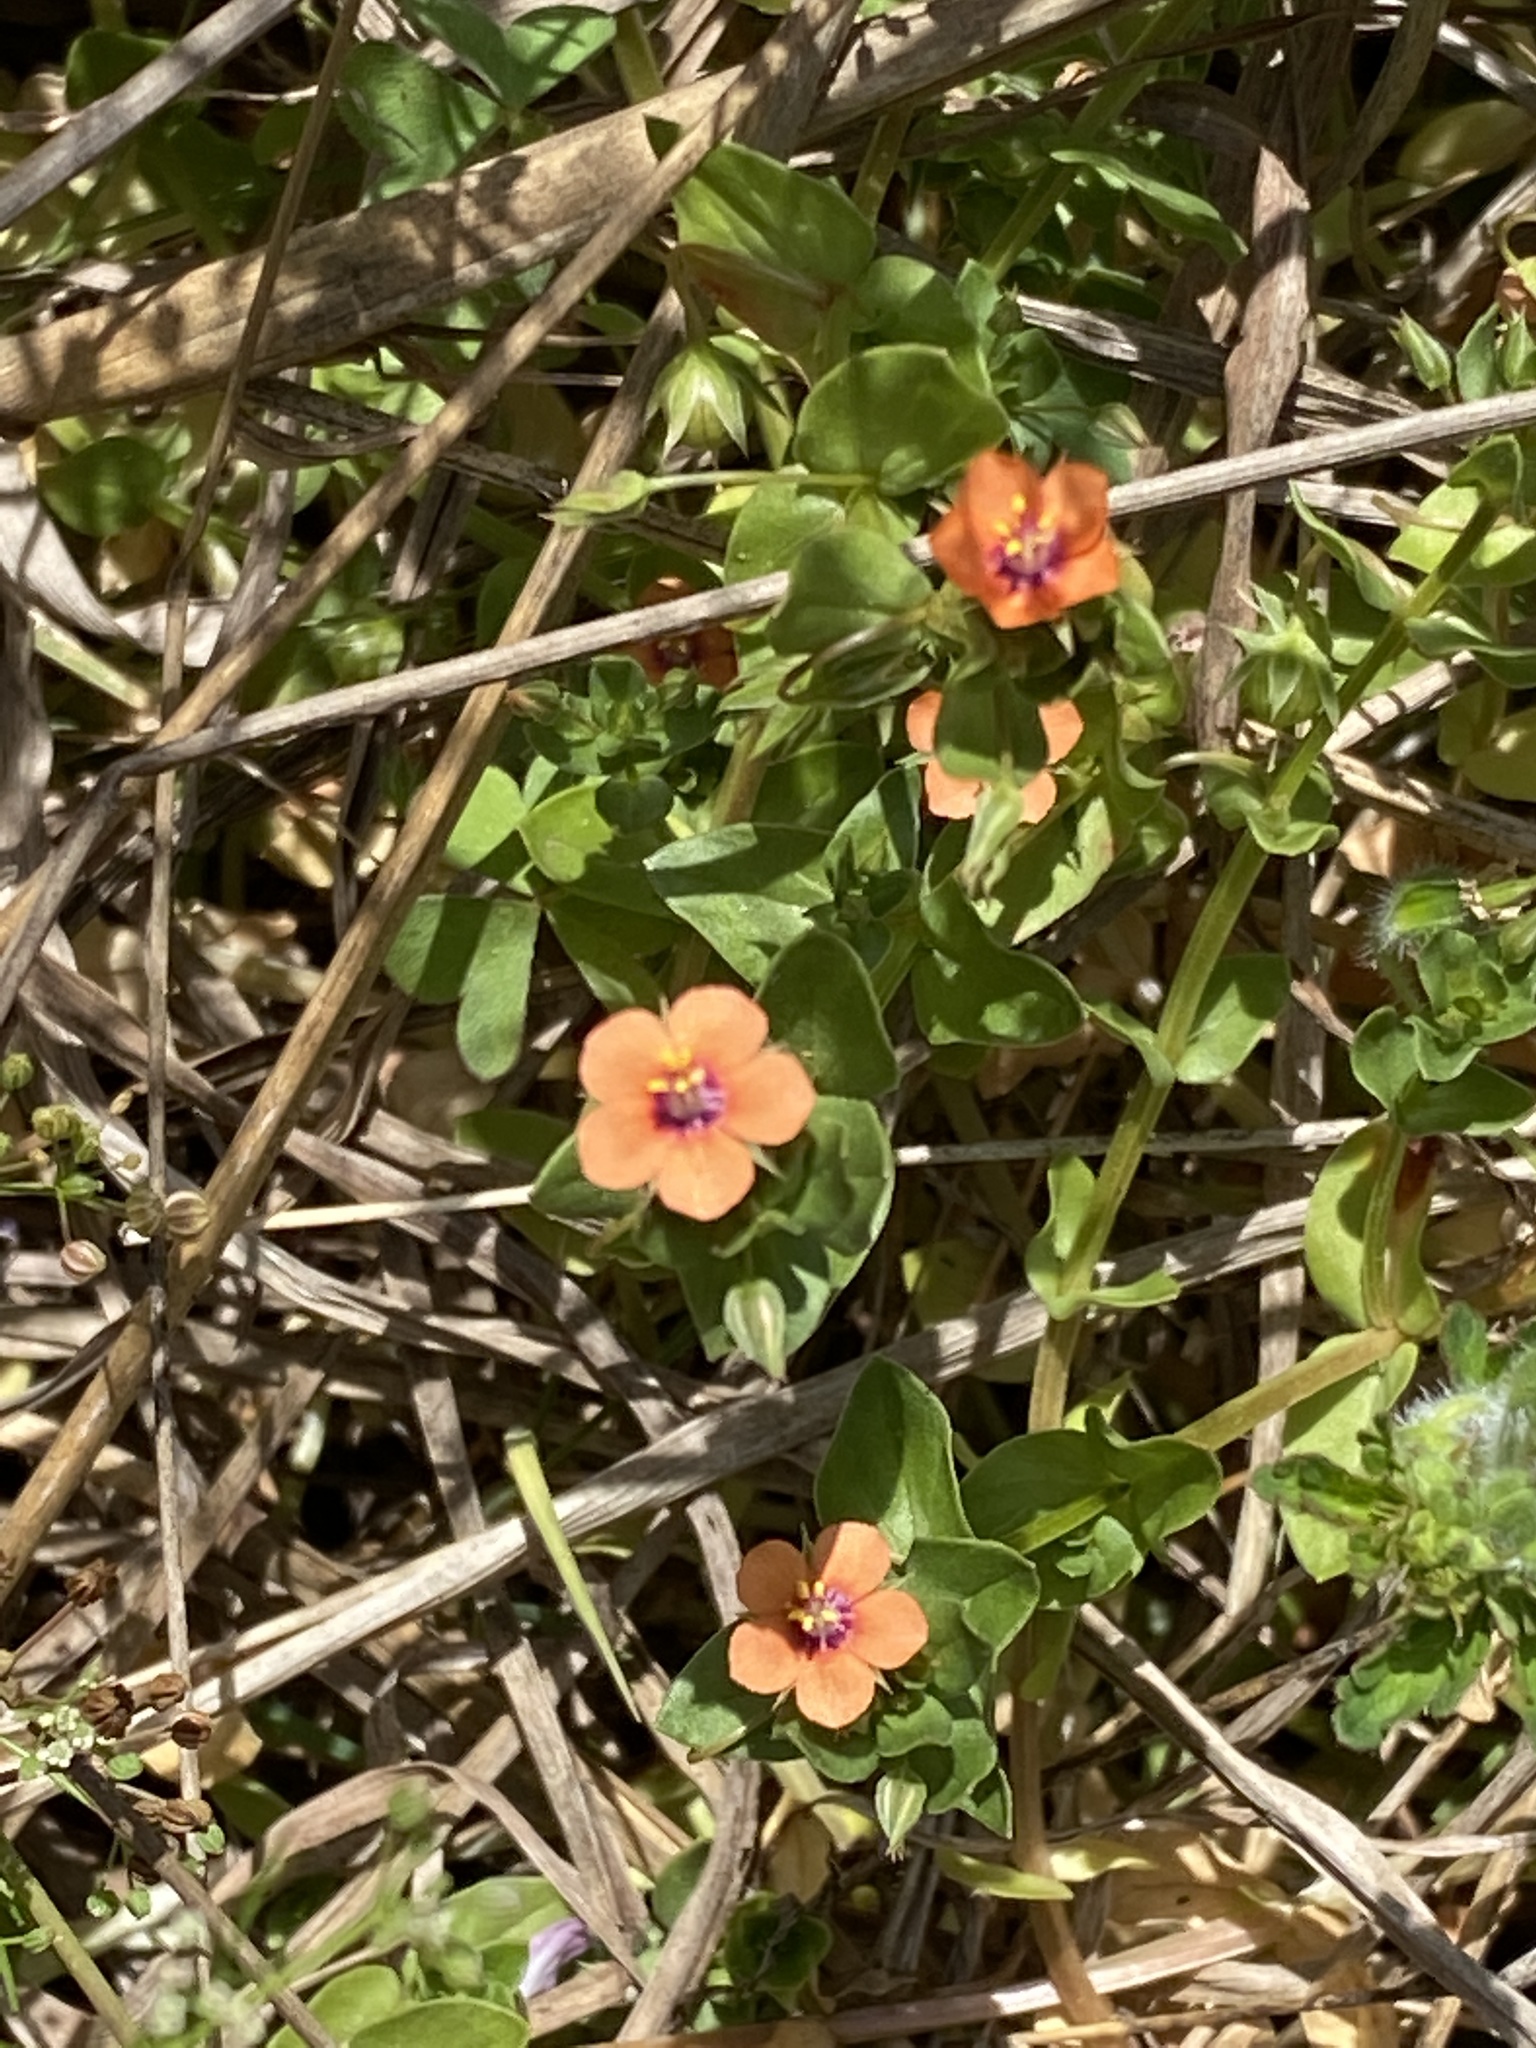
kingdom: Plantae
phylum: Tracheophyta
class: Magnoliopsida
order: Ericales
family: Primulaceae
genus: Lysimachia
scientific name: Lysimachia arvensis
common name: Scarlet pimpernel
